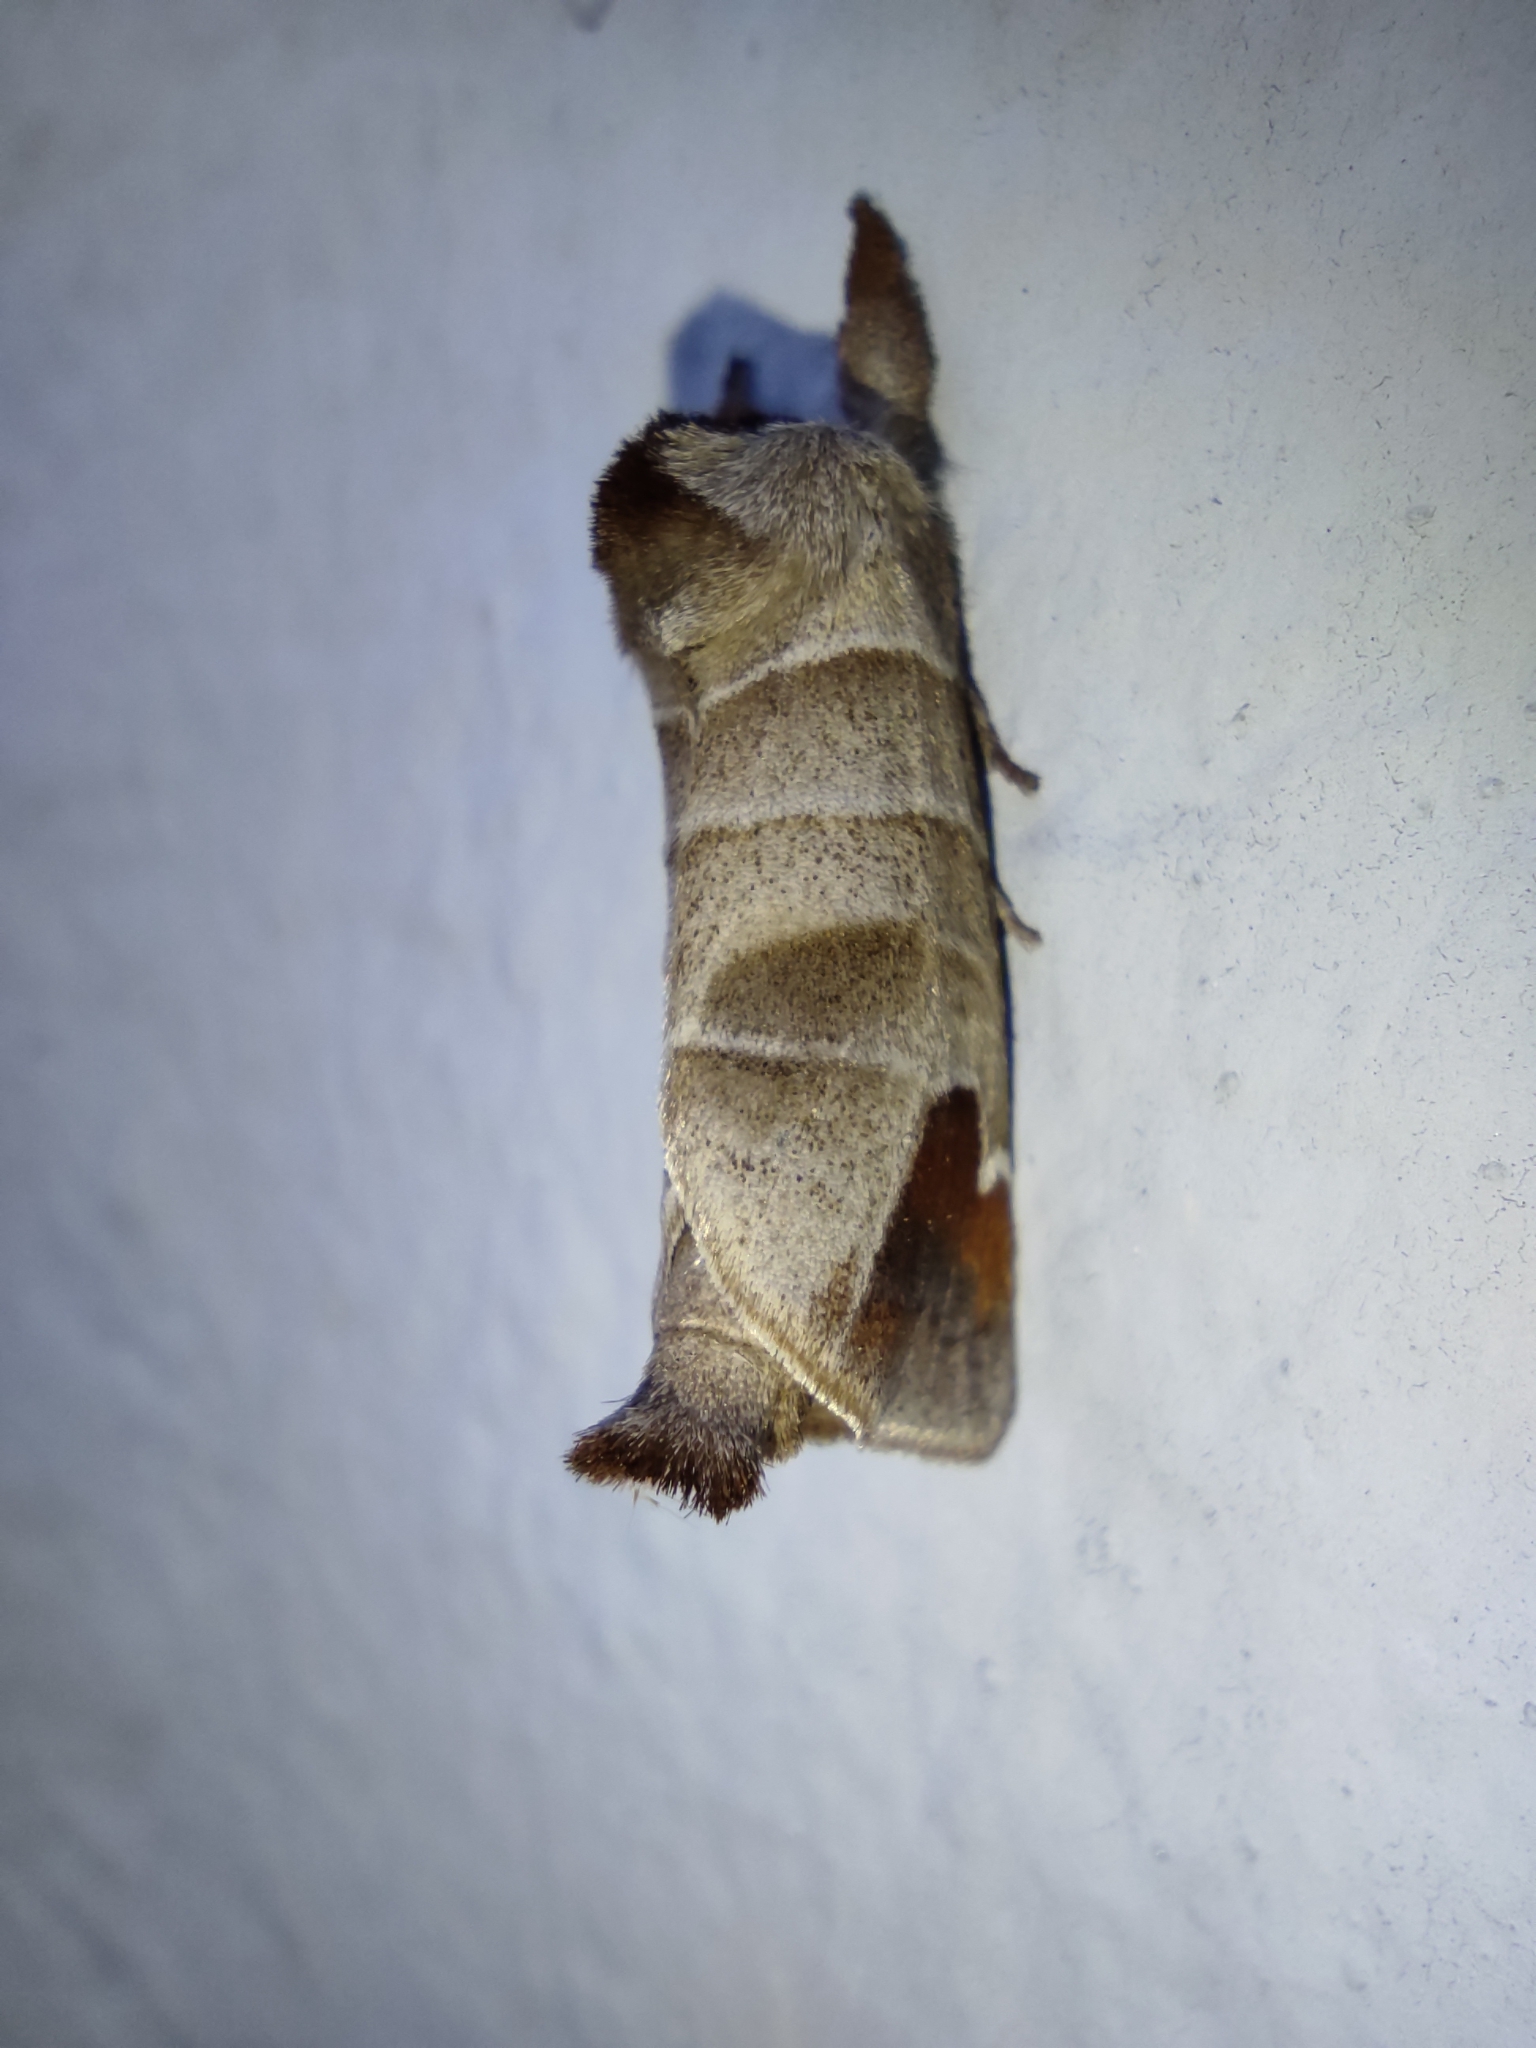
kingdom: Animalia
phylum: Arthropoda
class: Insecta
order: Lepidoptera
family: Notodontidae
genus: Clostera
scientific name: Clostera albosigma
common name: Sigmoid prominent
